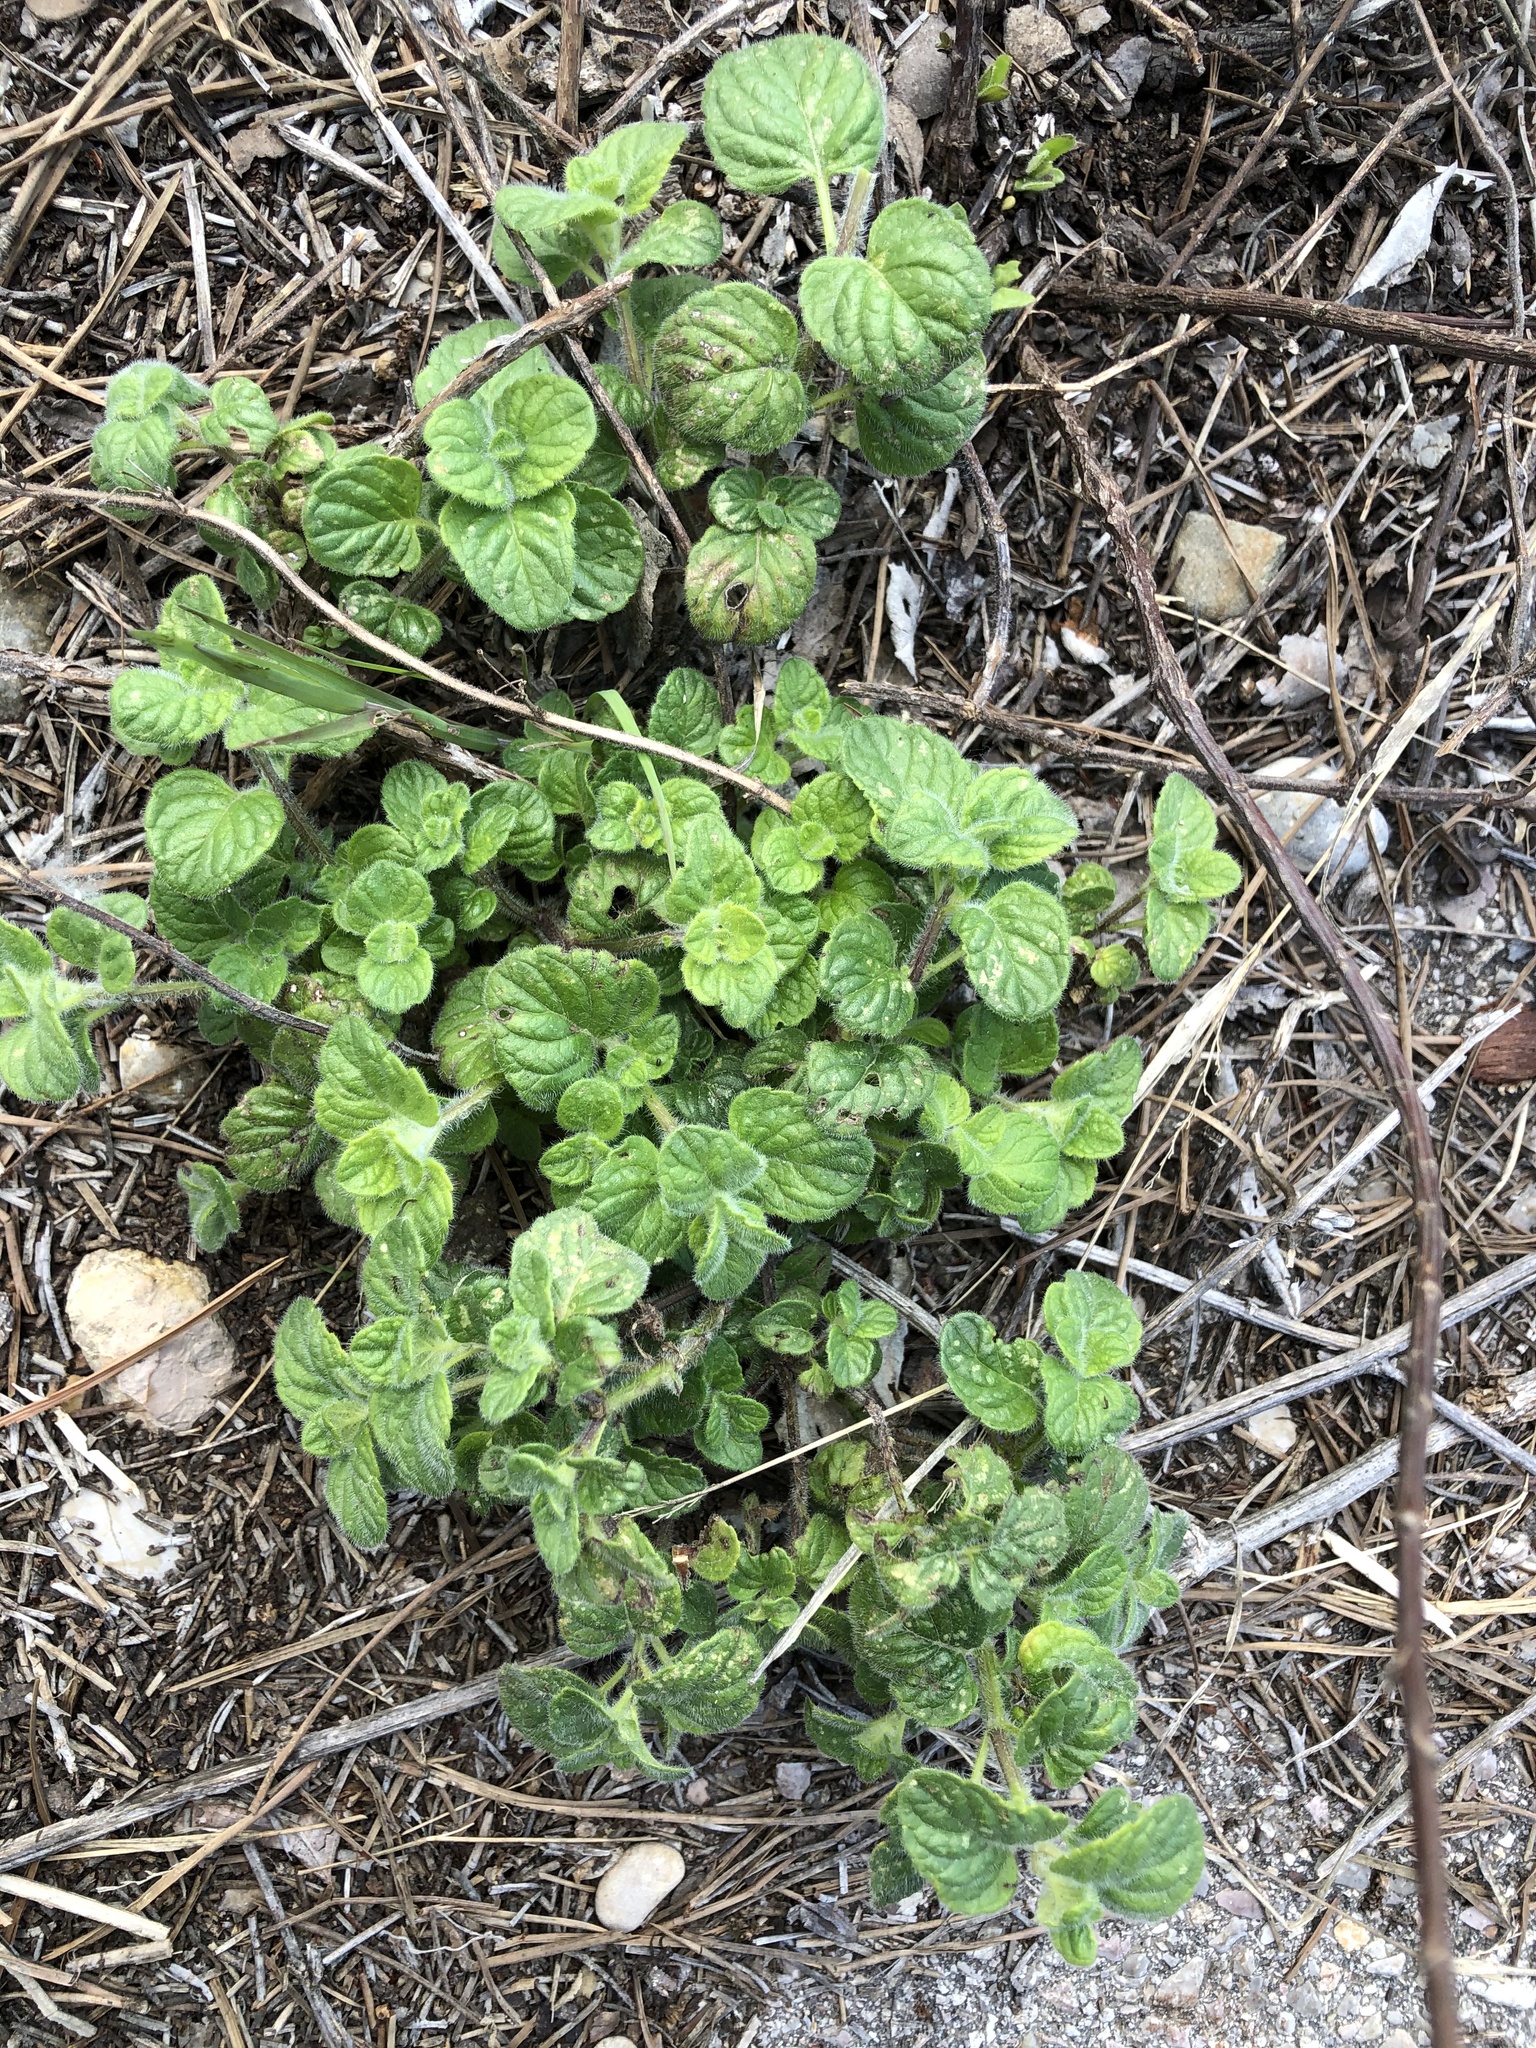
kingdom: Plantae
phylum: Tracheophyta
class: Magnoliopsida
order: Lamiales
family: Lamiaceae
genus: Clinopodium
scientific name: Clinopodium nepeta
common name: Lesser calamint
